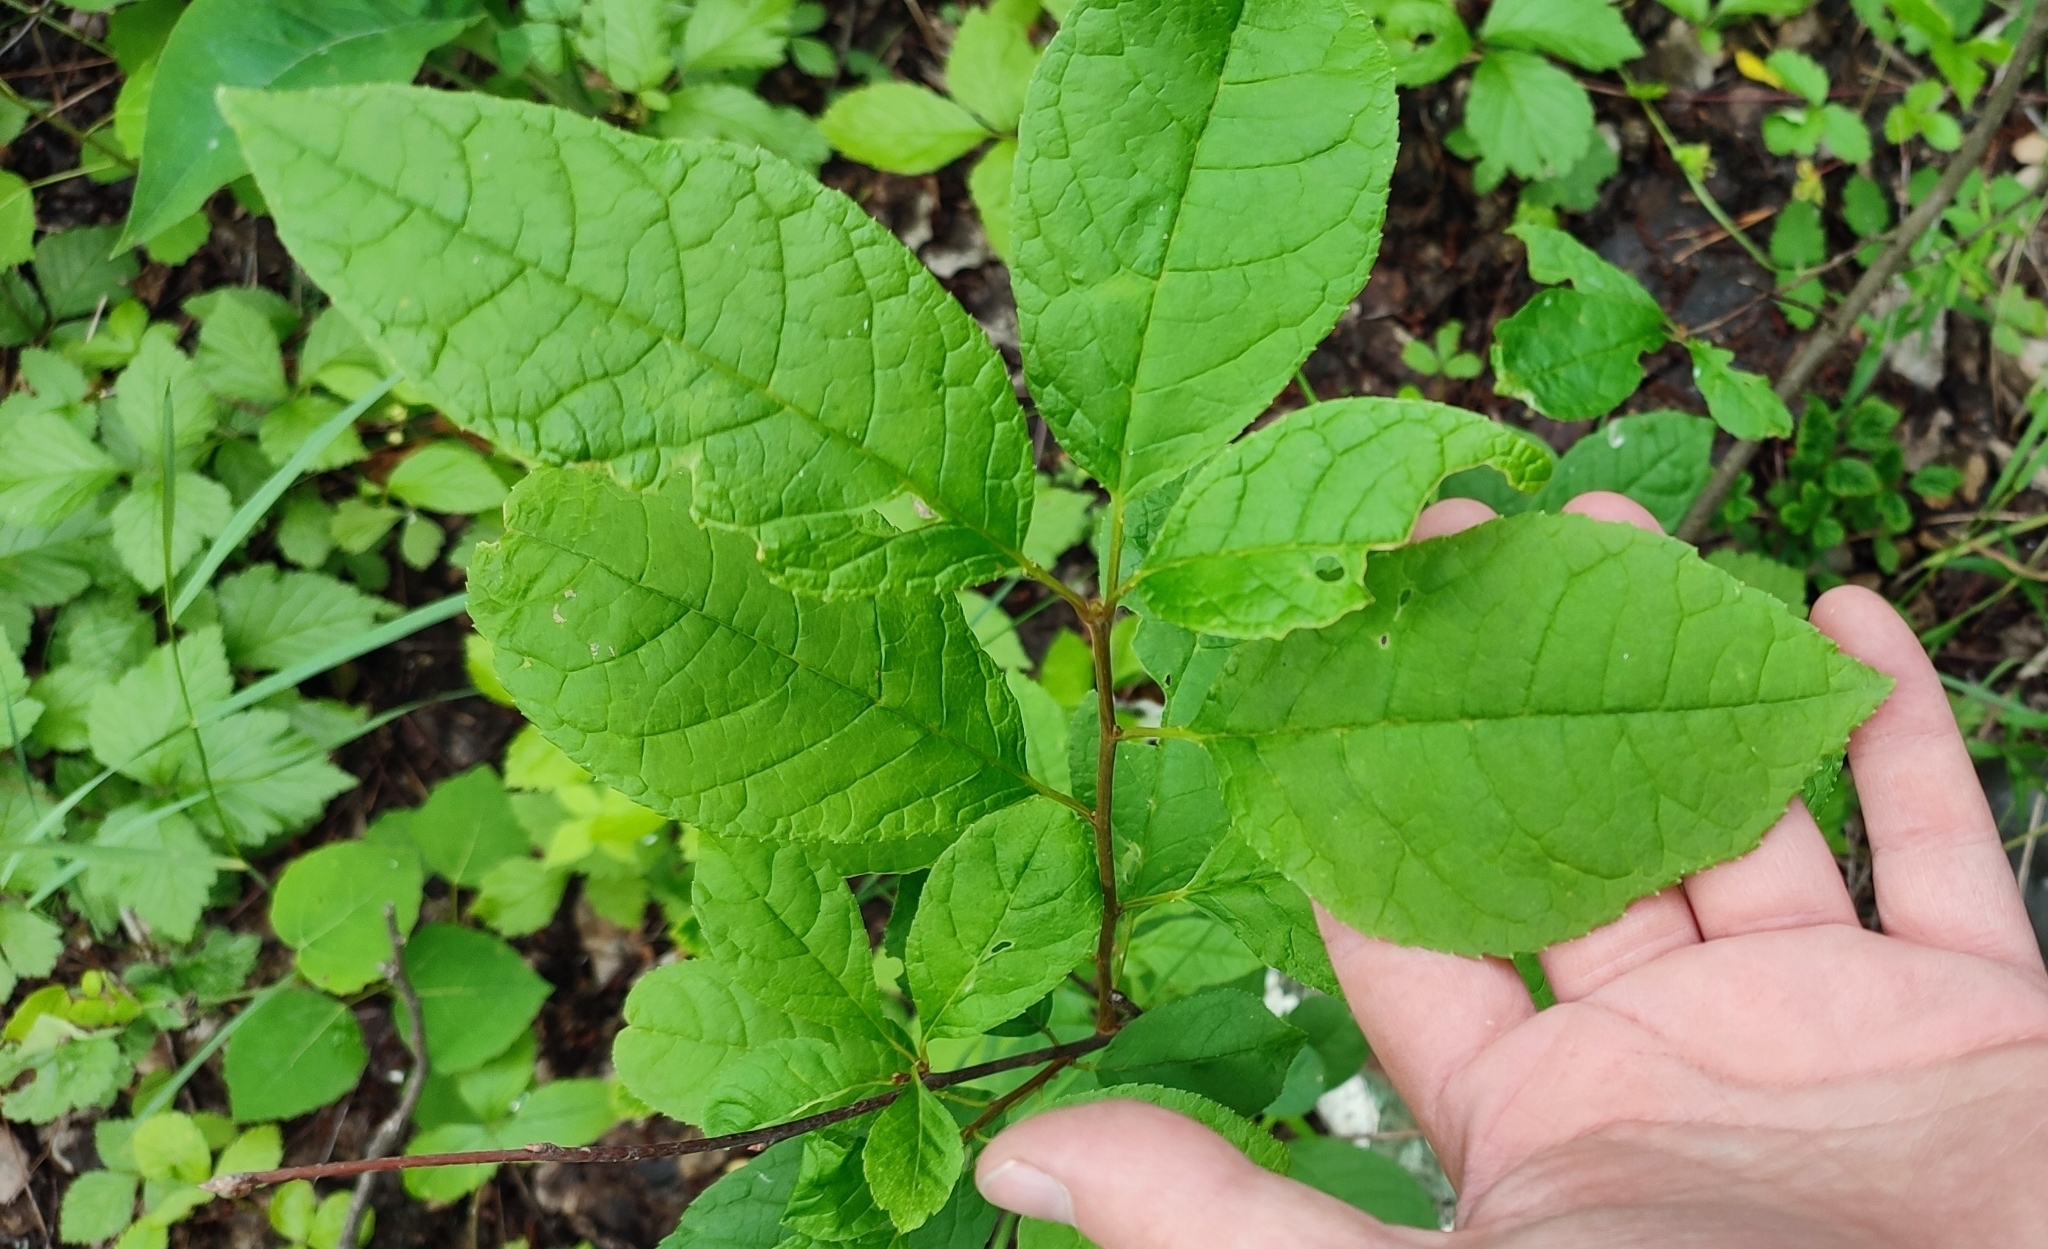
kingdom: Plantae
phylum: Tracheophyta
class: Magnoliopsida
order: Rosales
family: Rosaceae
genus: Prunus
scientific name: Prunus padus
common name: Bird cherry
